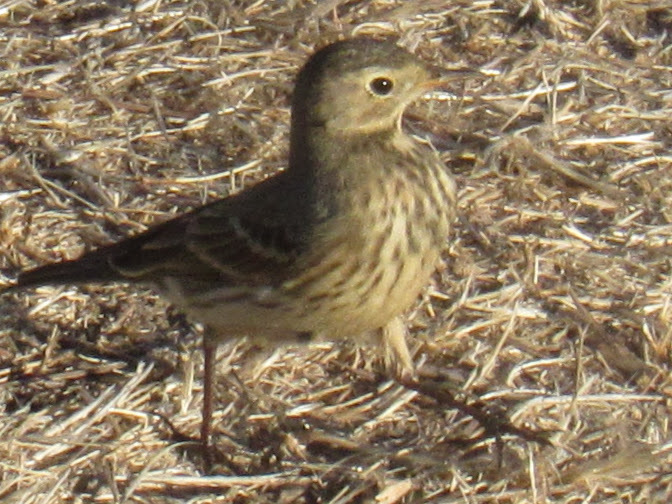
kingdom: Animalia
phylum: Chordata
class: Aves
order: Passeriformes
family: Motacillidae
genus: Anthus
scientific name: Anthus rubescens
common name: Buff-bellied pipit
